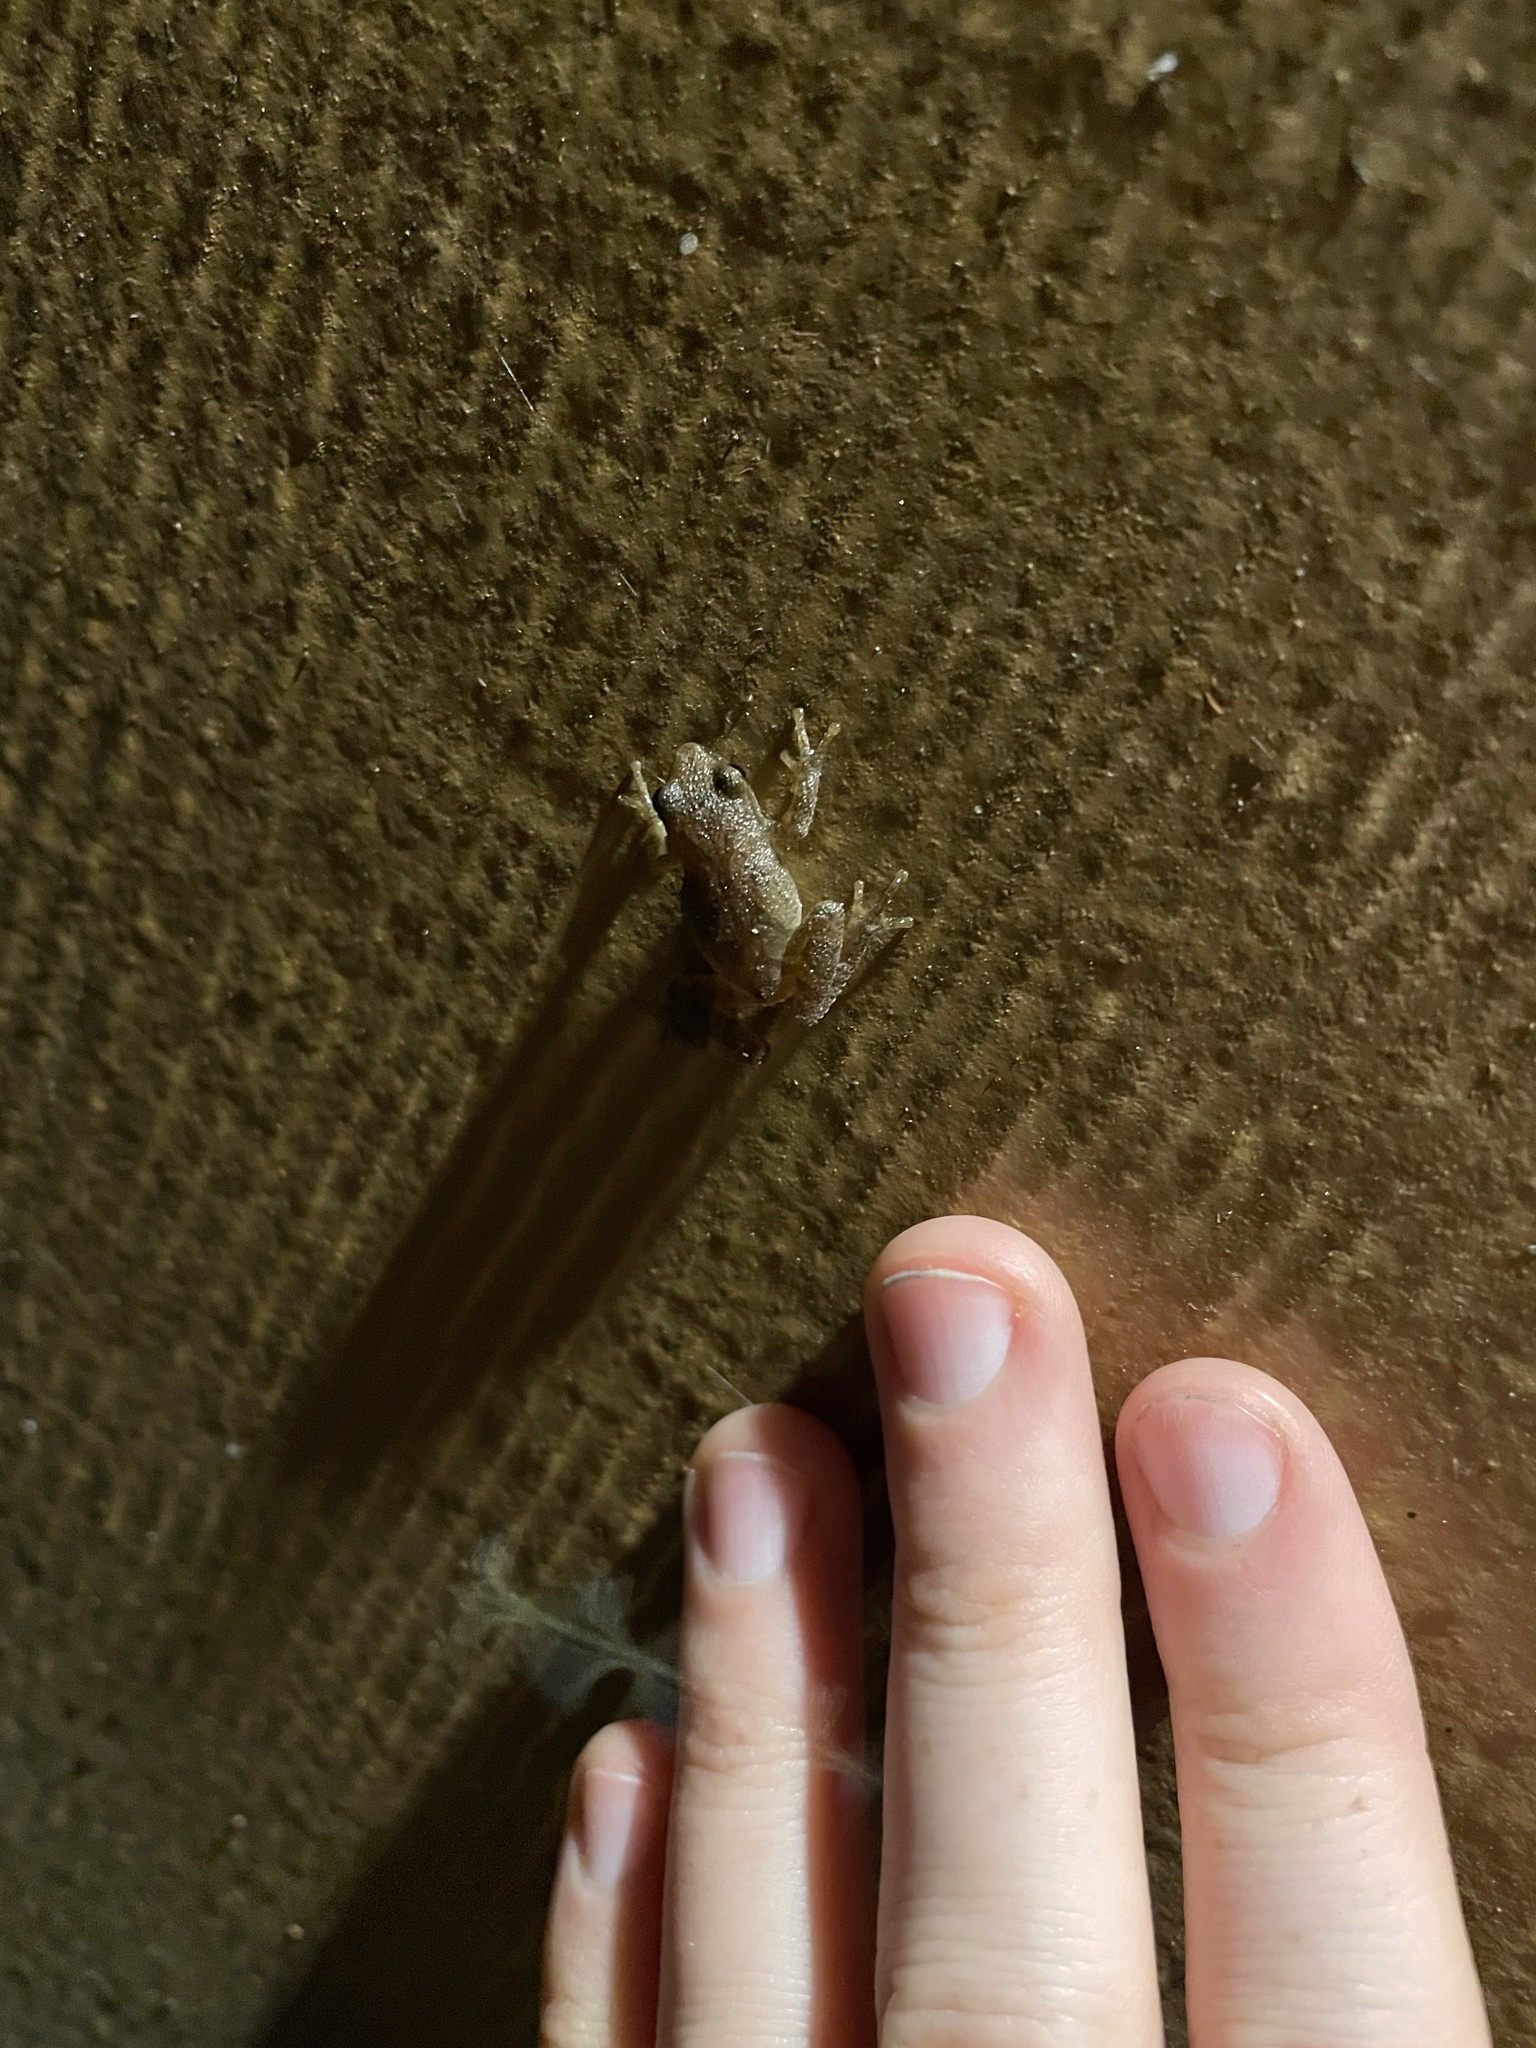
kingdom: Animalia
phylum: Chordata
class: Amphibia
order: Anura
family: Hylidae
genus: Pseudacris
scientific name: Pseudacris crucifer
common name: Spring peeper
